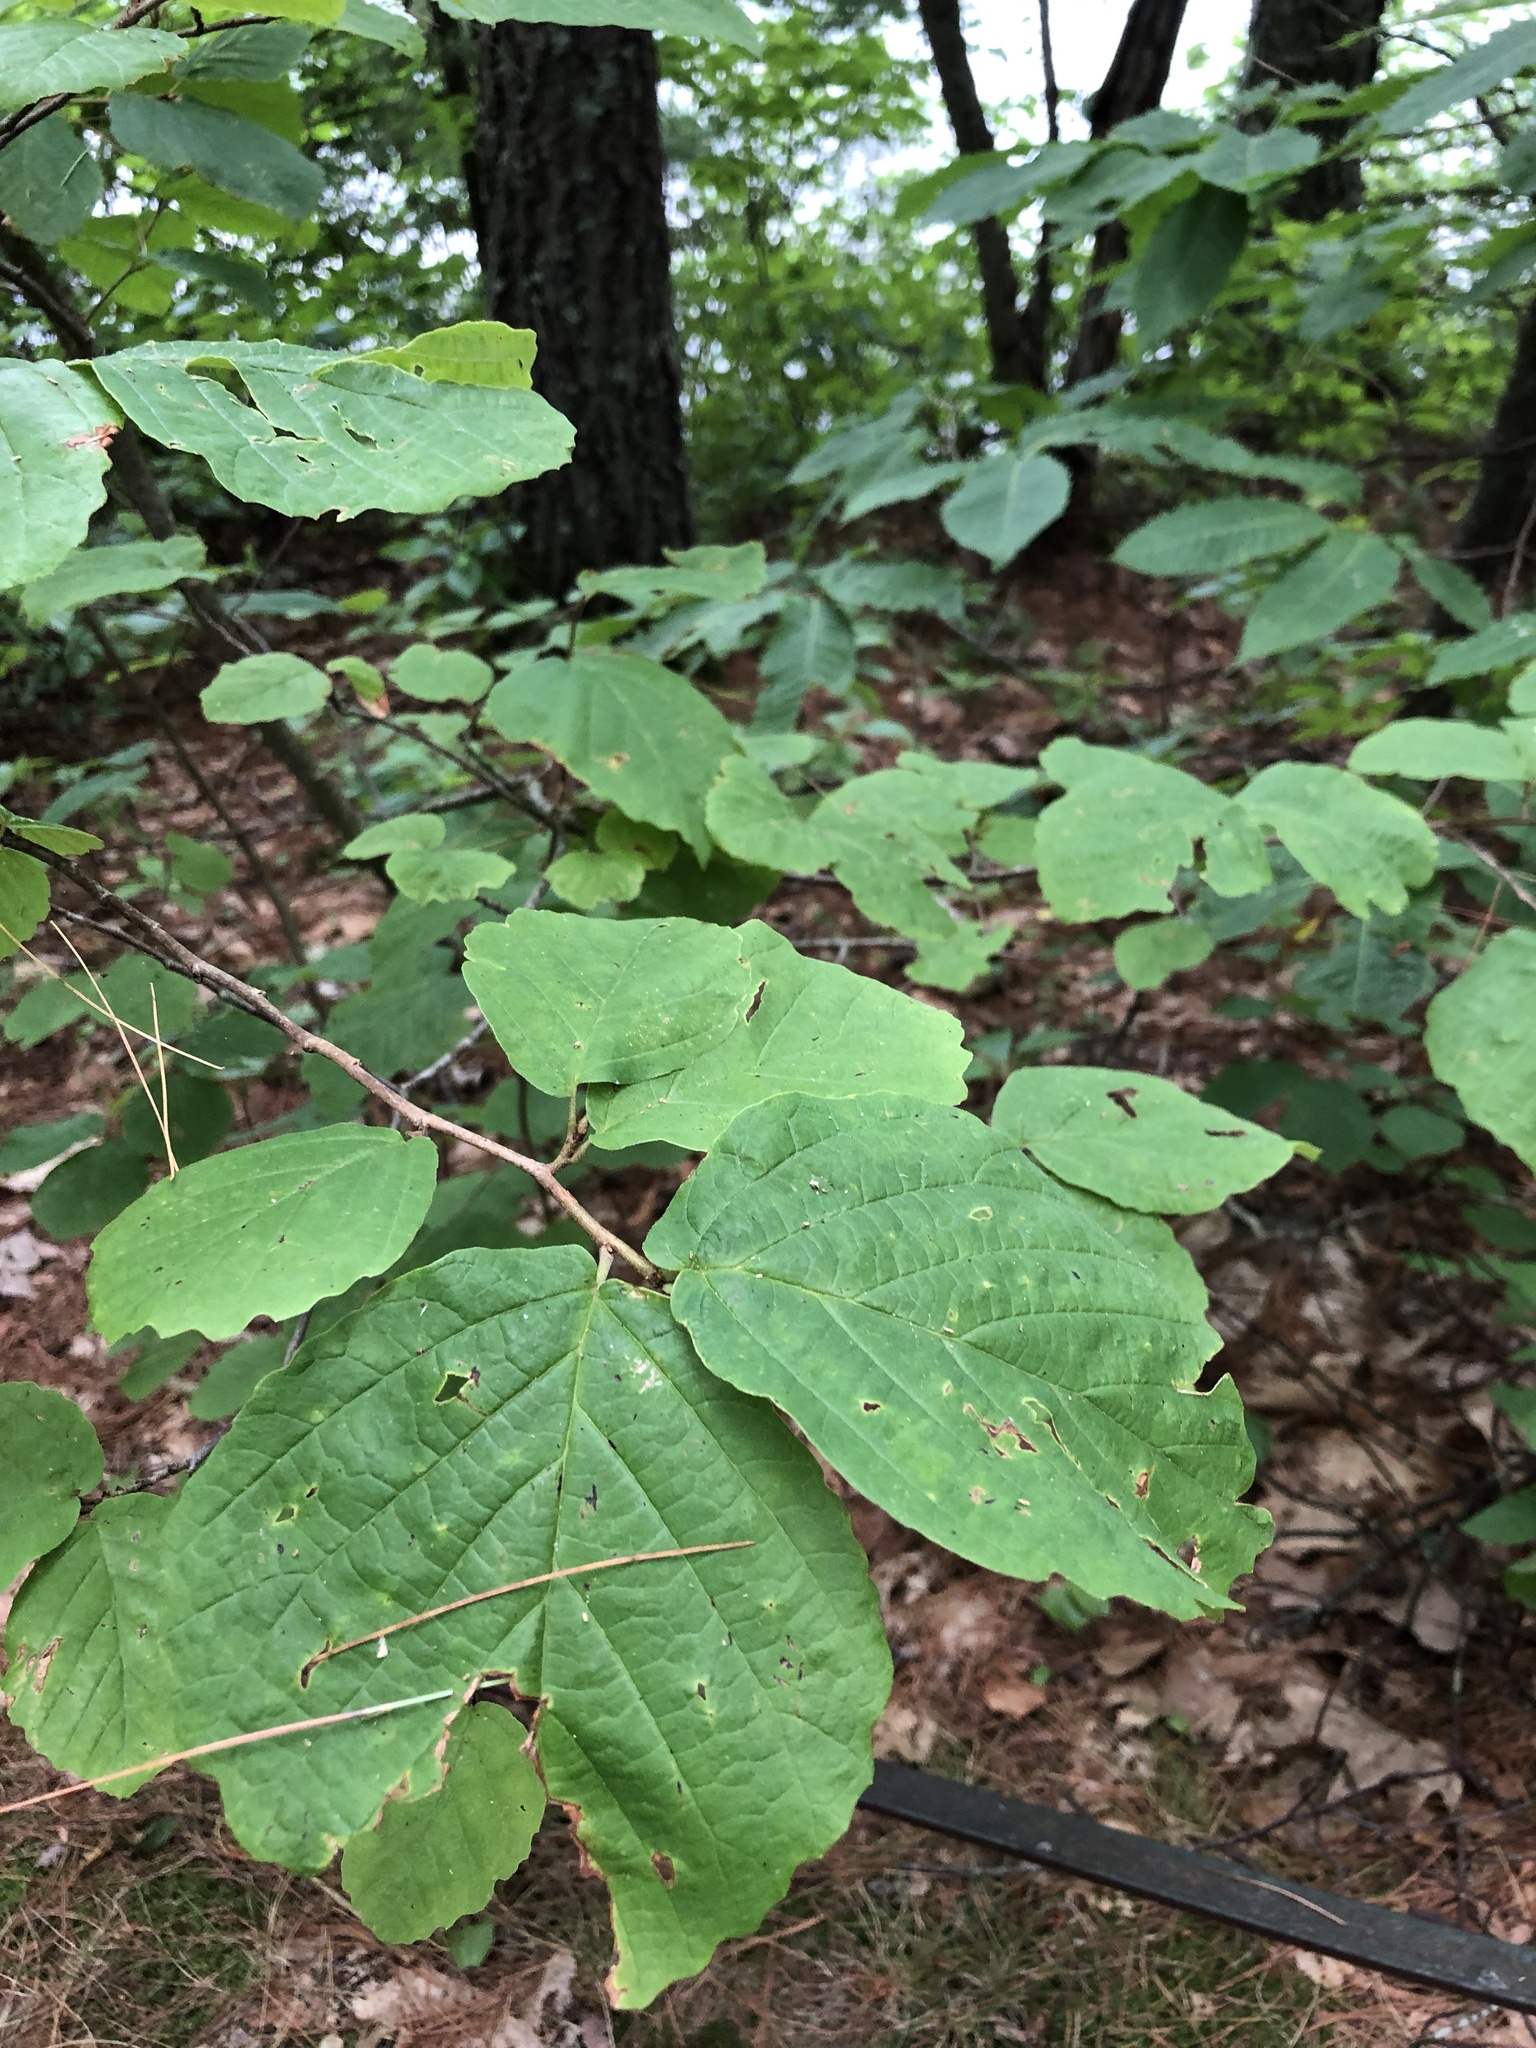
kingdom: Plantae
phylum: Tracheophyta
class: Magnoliopsida
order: Saxifragales
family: Hamamelidaceae
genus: Hamamelis
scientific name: Hamamelis virginiana
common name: Witch-hazel
